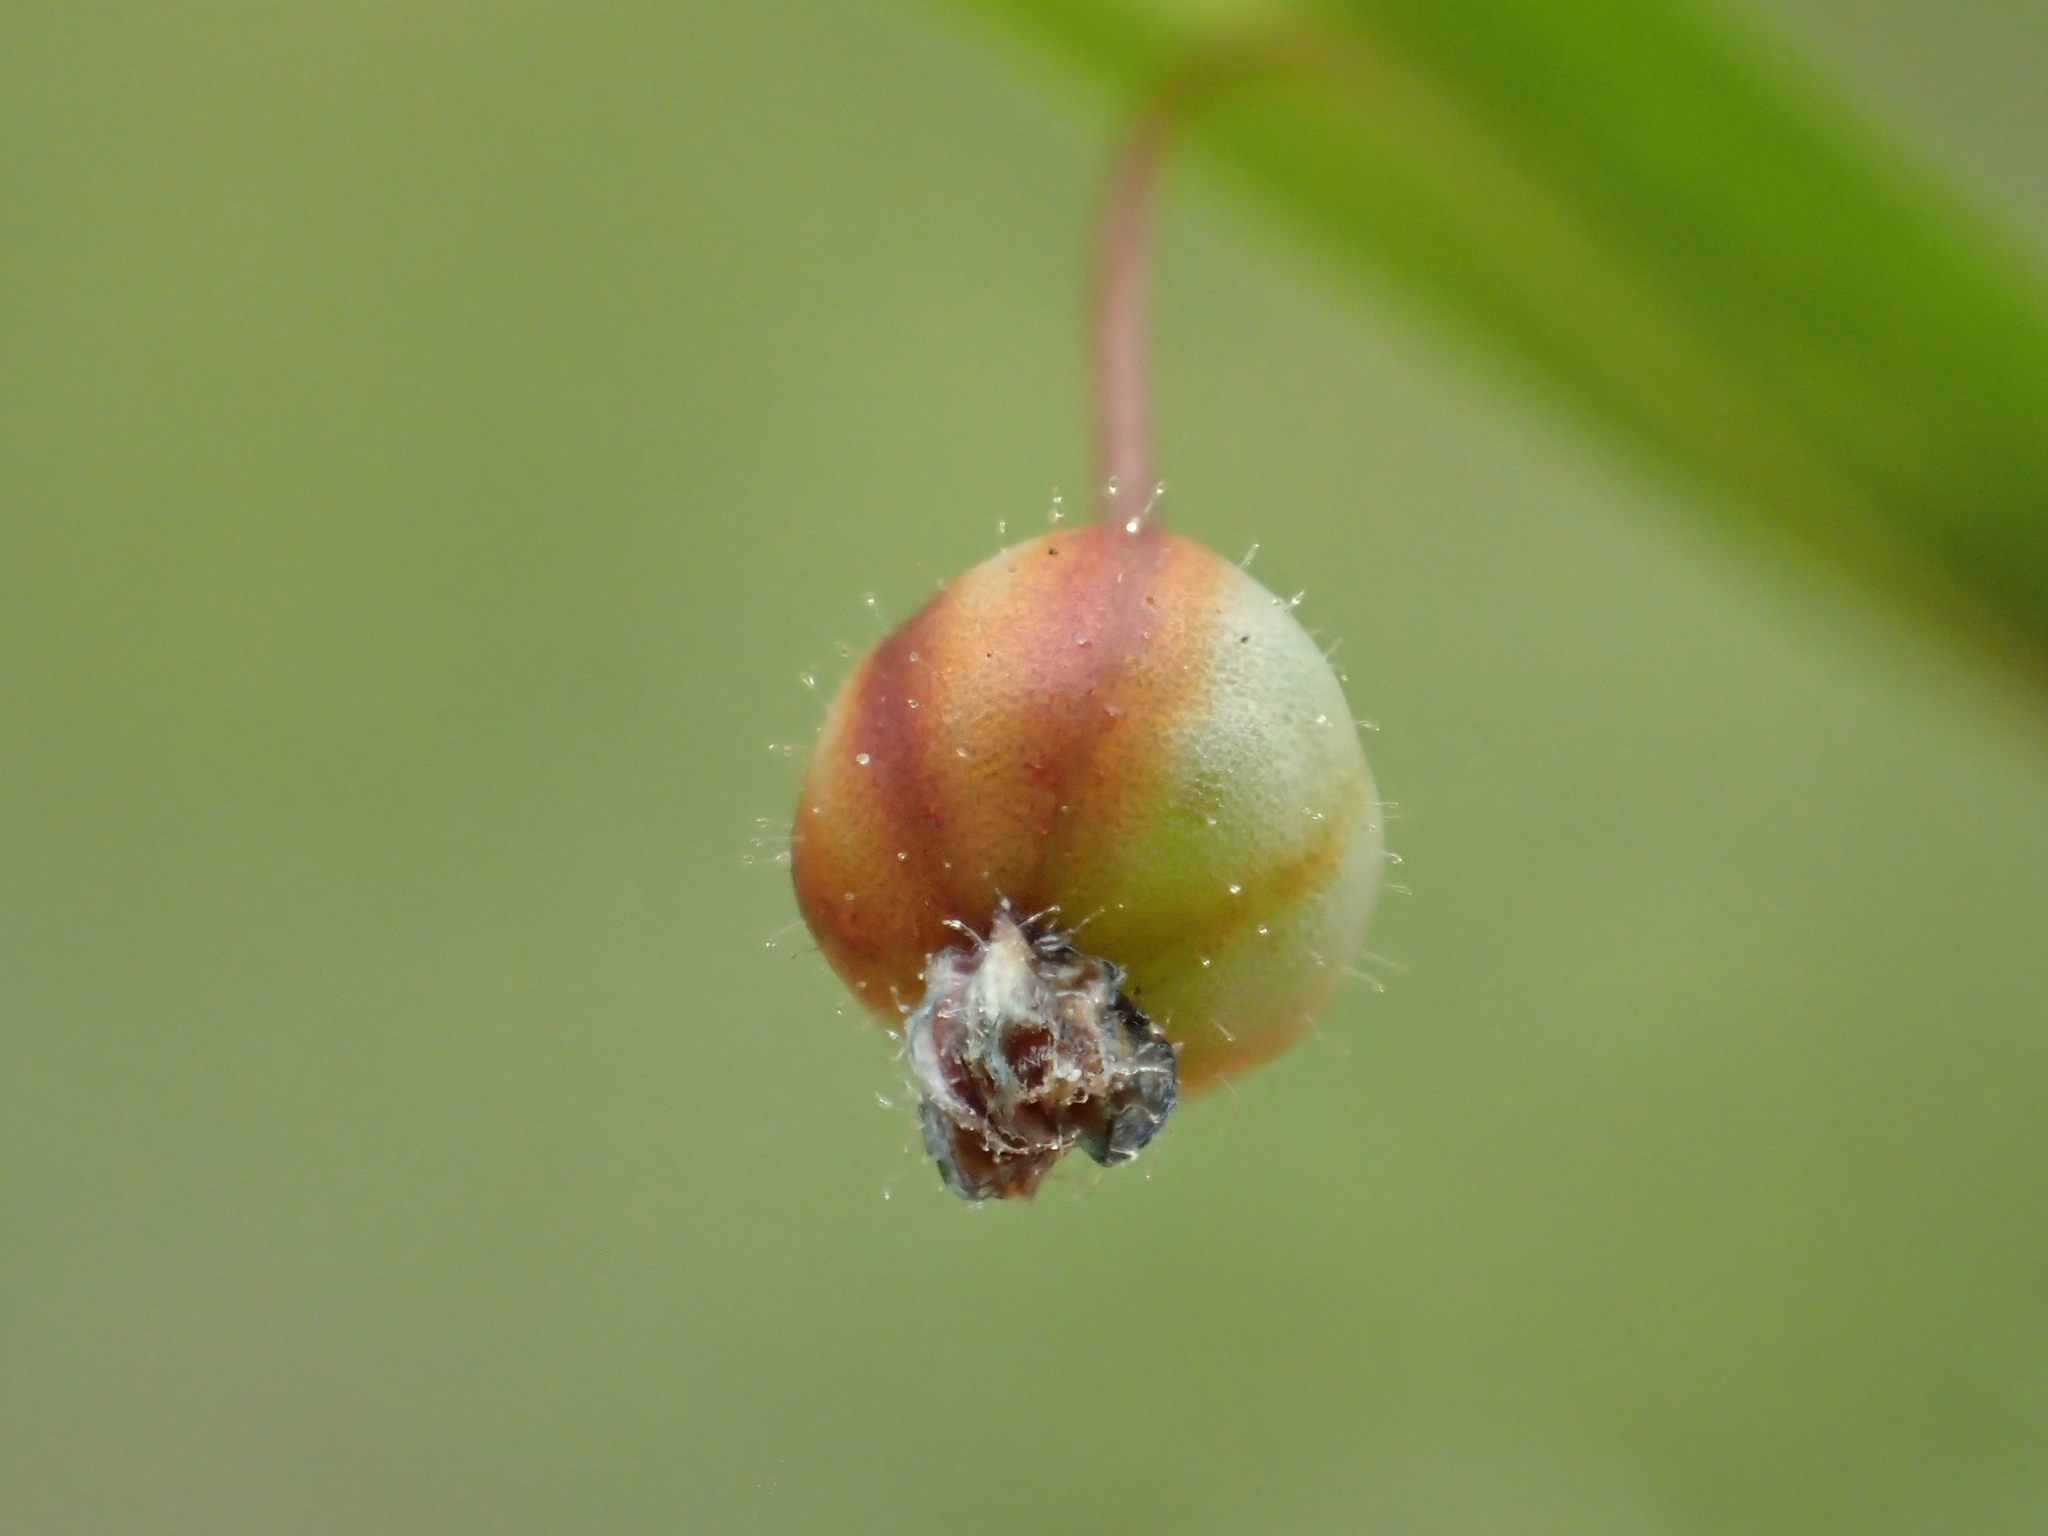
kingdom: Plantae
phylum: Tracheophyta
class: Liliopsida
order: Asparagales
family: Iridaceae
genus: Sisyrinchium
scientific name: Sisyrinchium micranthum
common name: Bermuda pigroot
